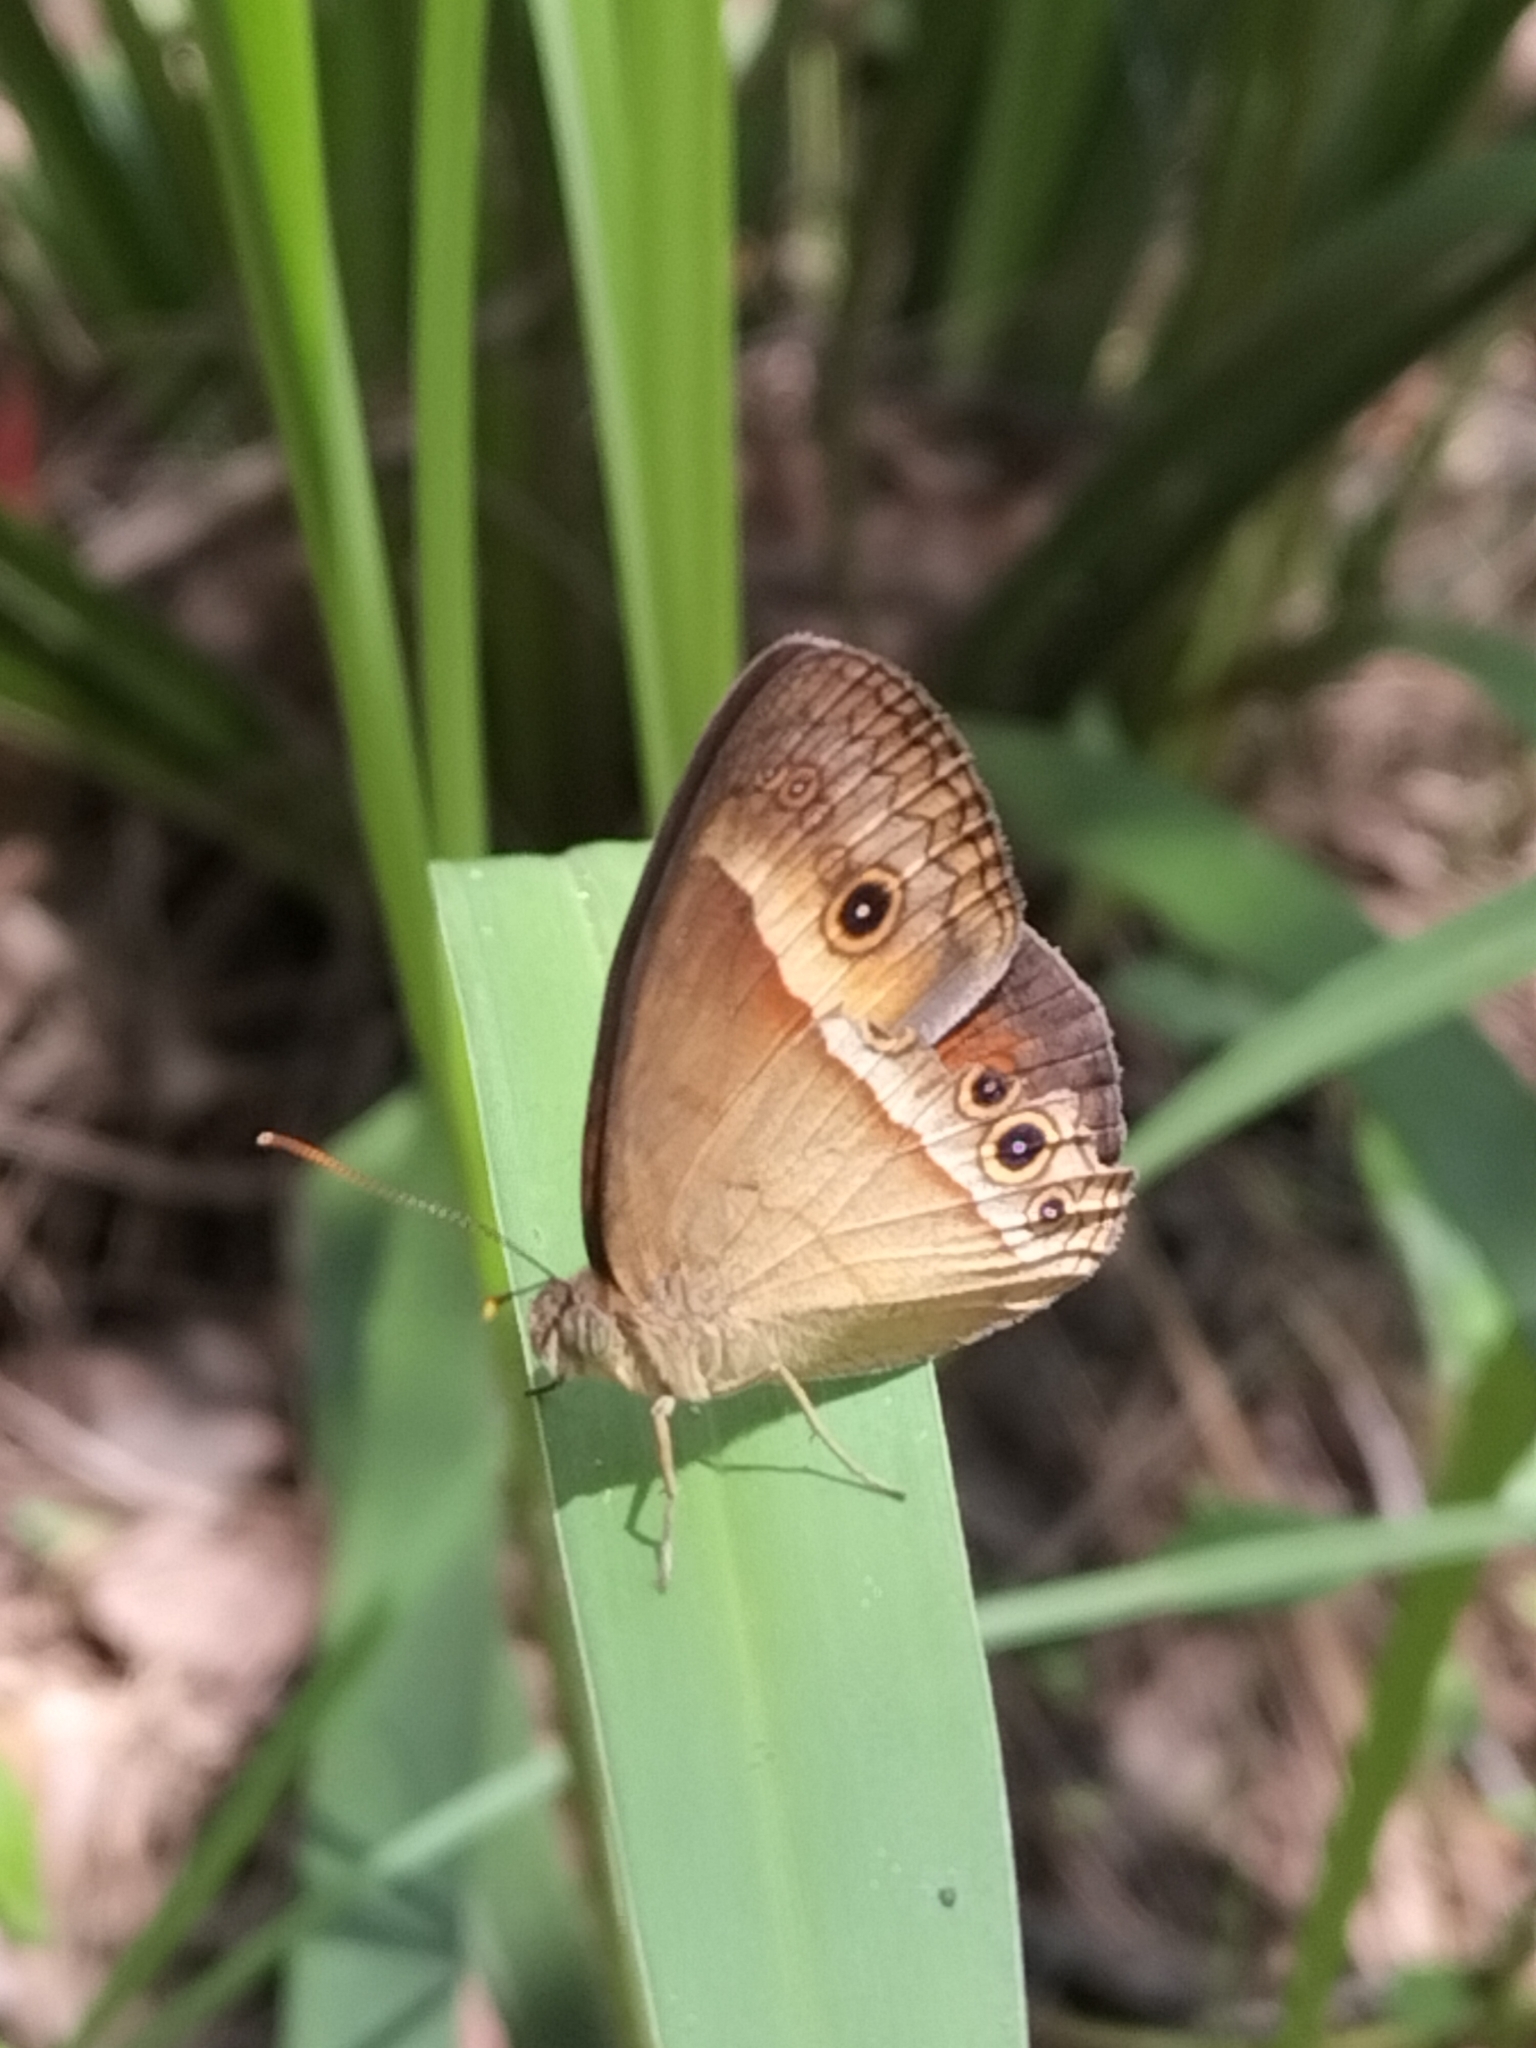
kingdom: Animalia
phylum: Arthropoda
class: Insecta
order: Lepidoptera
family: Nymphalidae
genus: Mycalesis
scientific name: Mycalesis terminus
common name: Orange bushbrown
